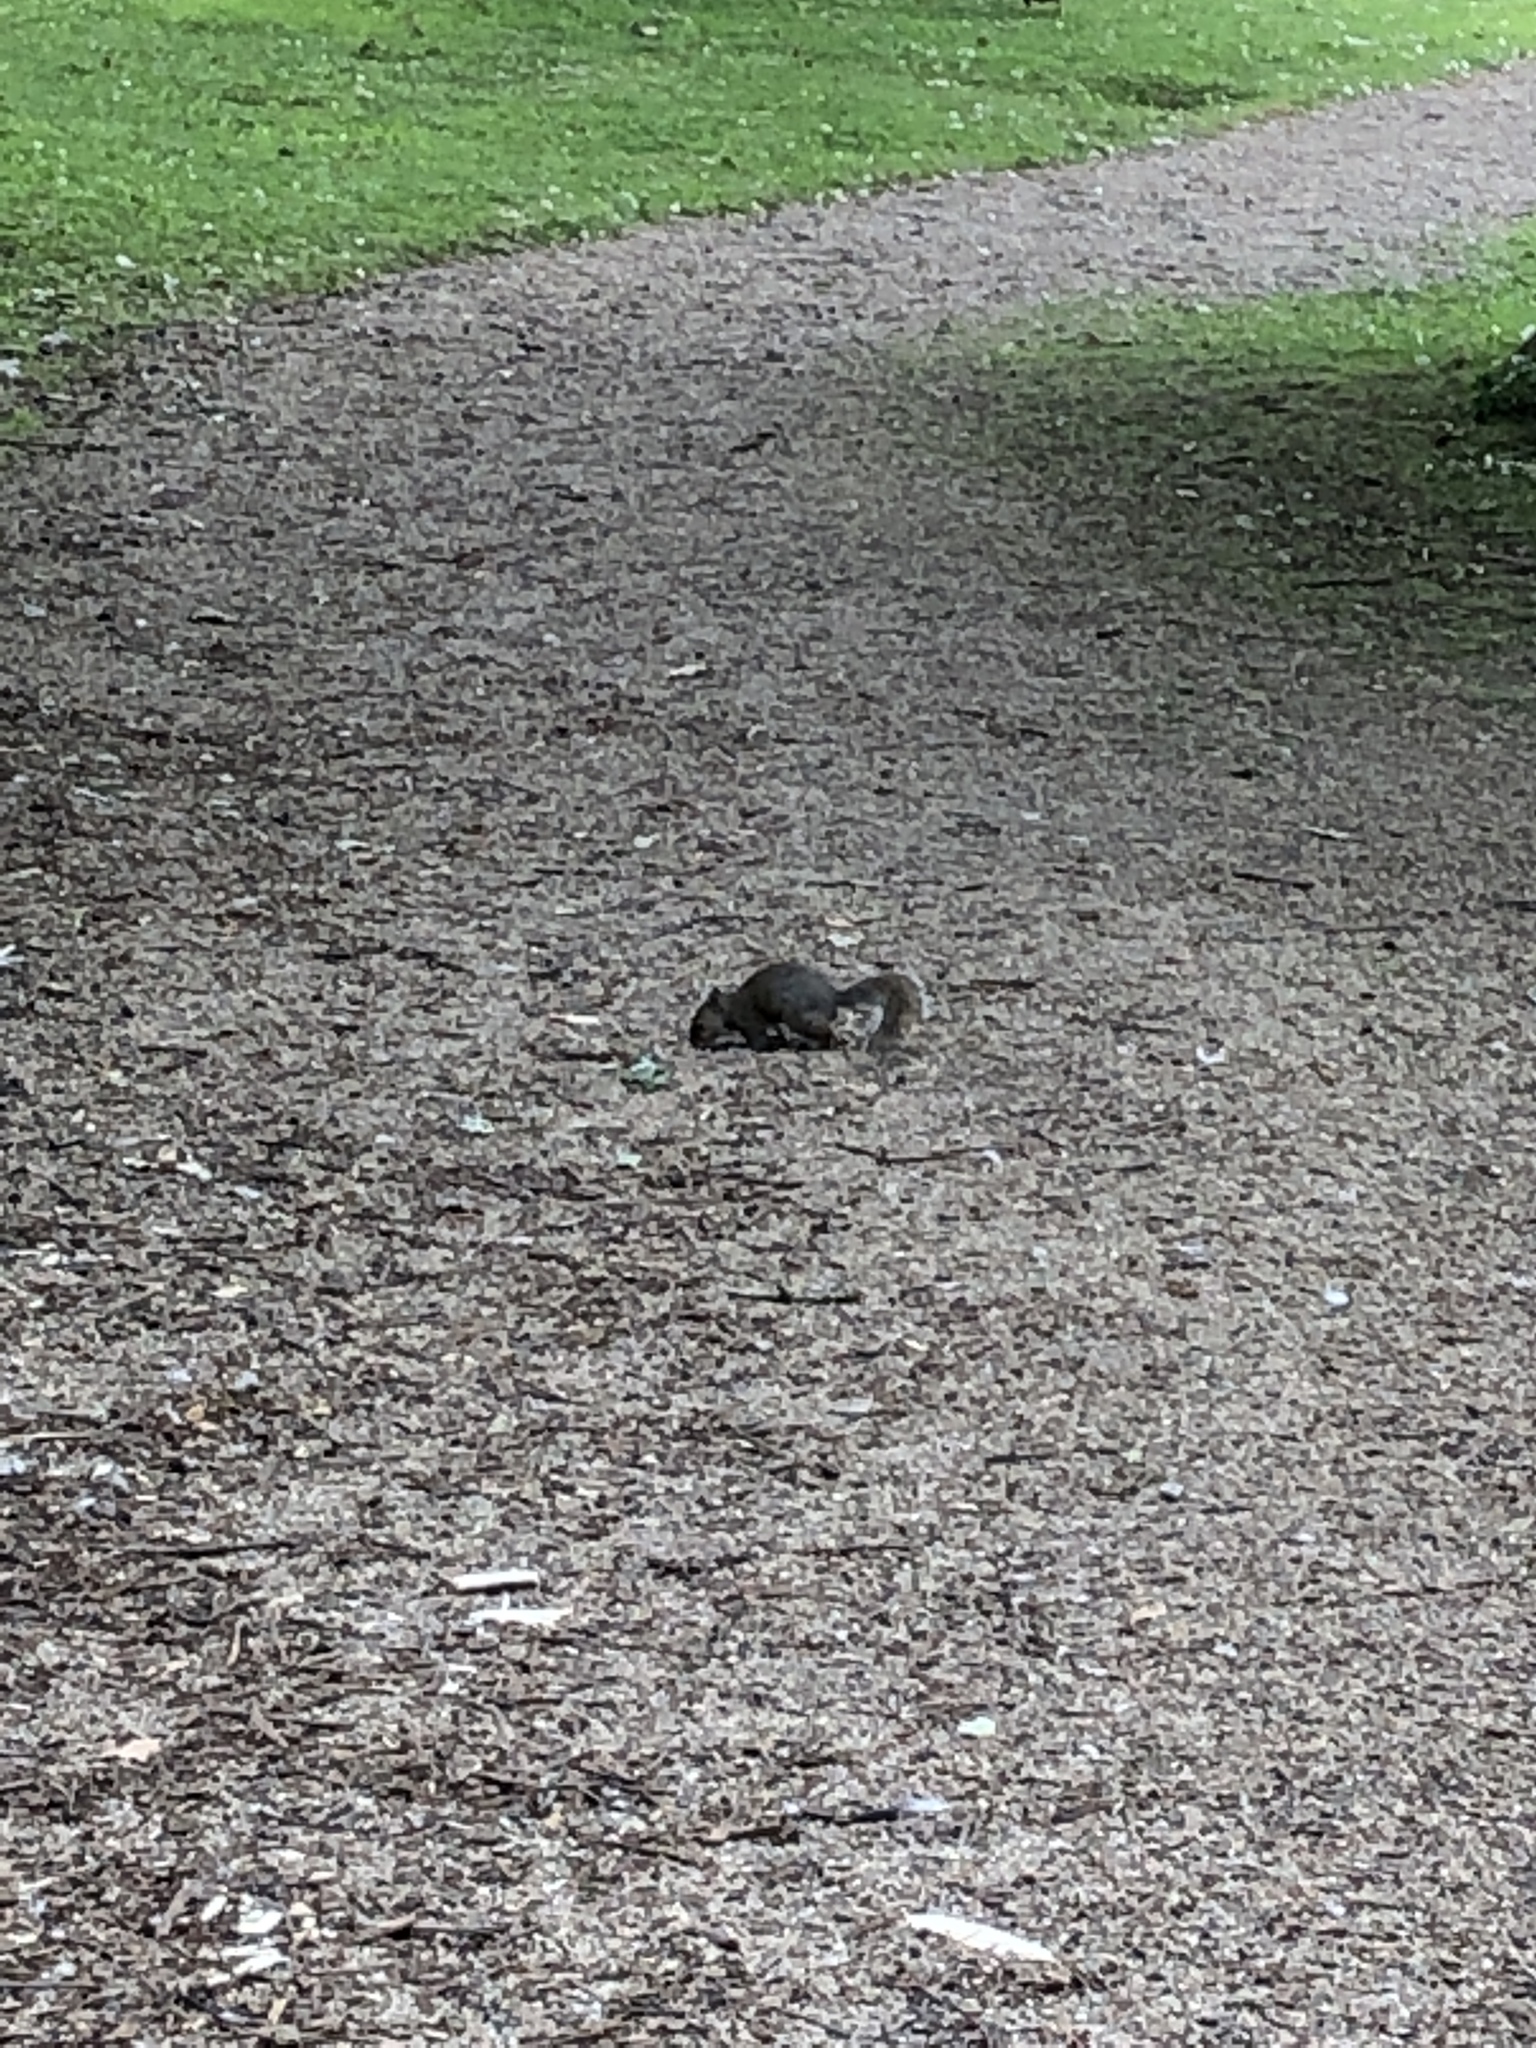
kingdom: Animalia
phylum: Chordata
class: Mammalia
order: Rodentia
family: Sciuridae
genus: Sciurus
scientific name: Sciurus carolinensis
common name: Eastern gray squirrel
